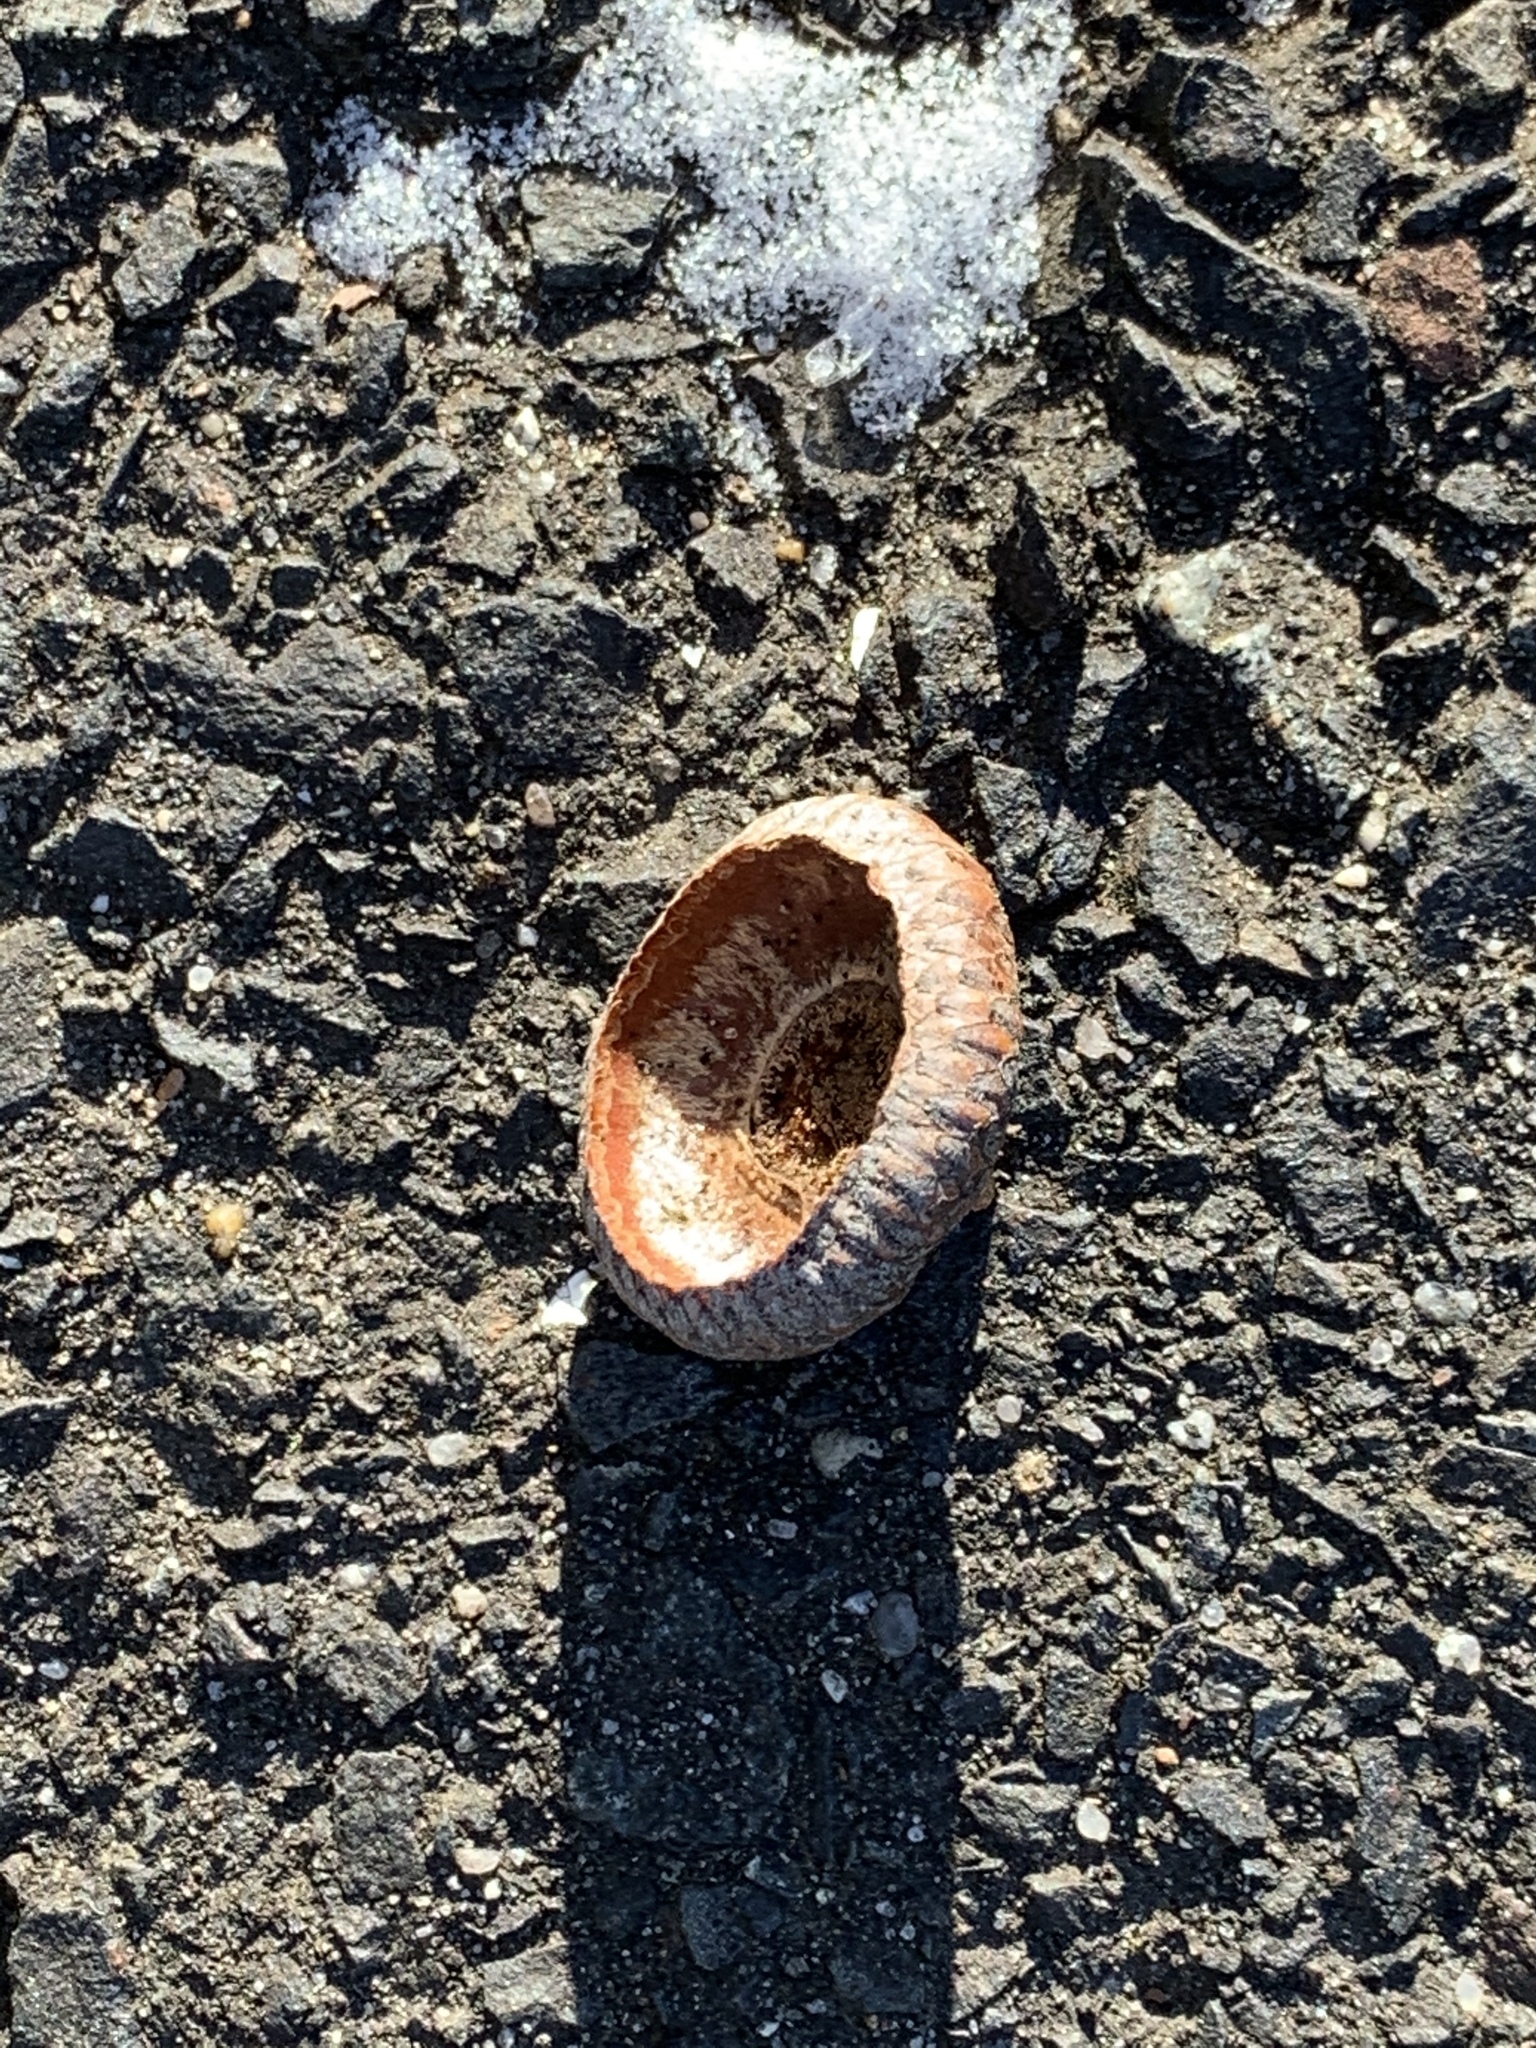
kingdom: Plantae
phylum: Tracheophyta
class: Magnoliopsida
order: Fagales
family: Fagaceae
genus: Quercus
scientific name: Quercus rubra
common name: Red oak
